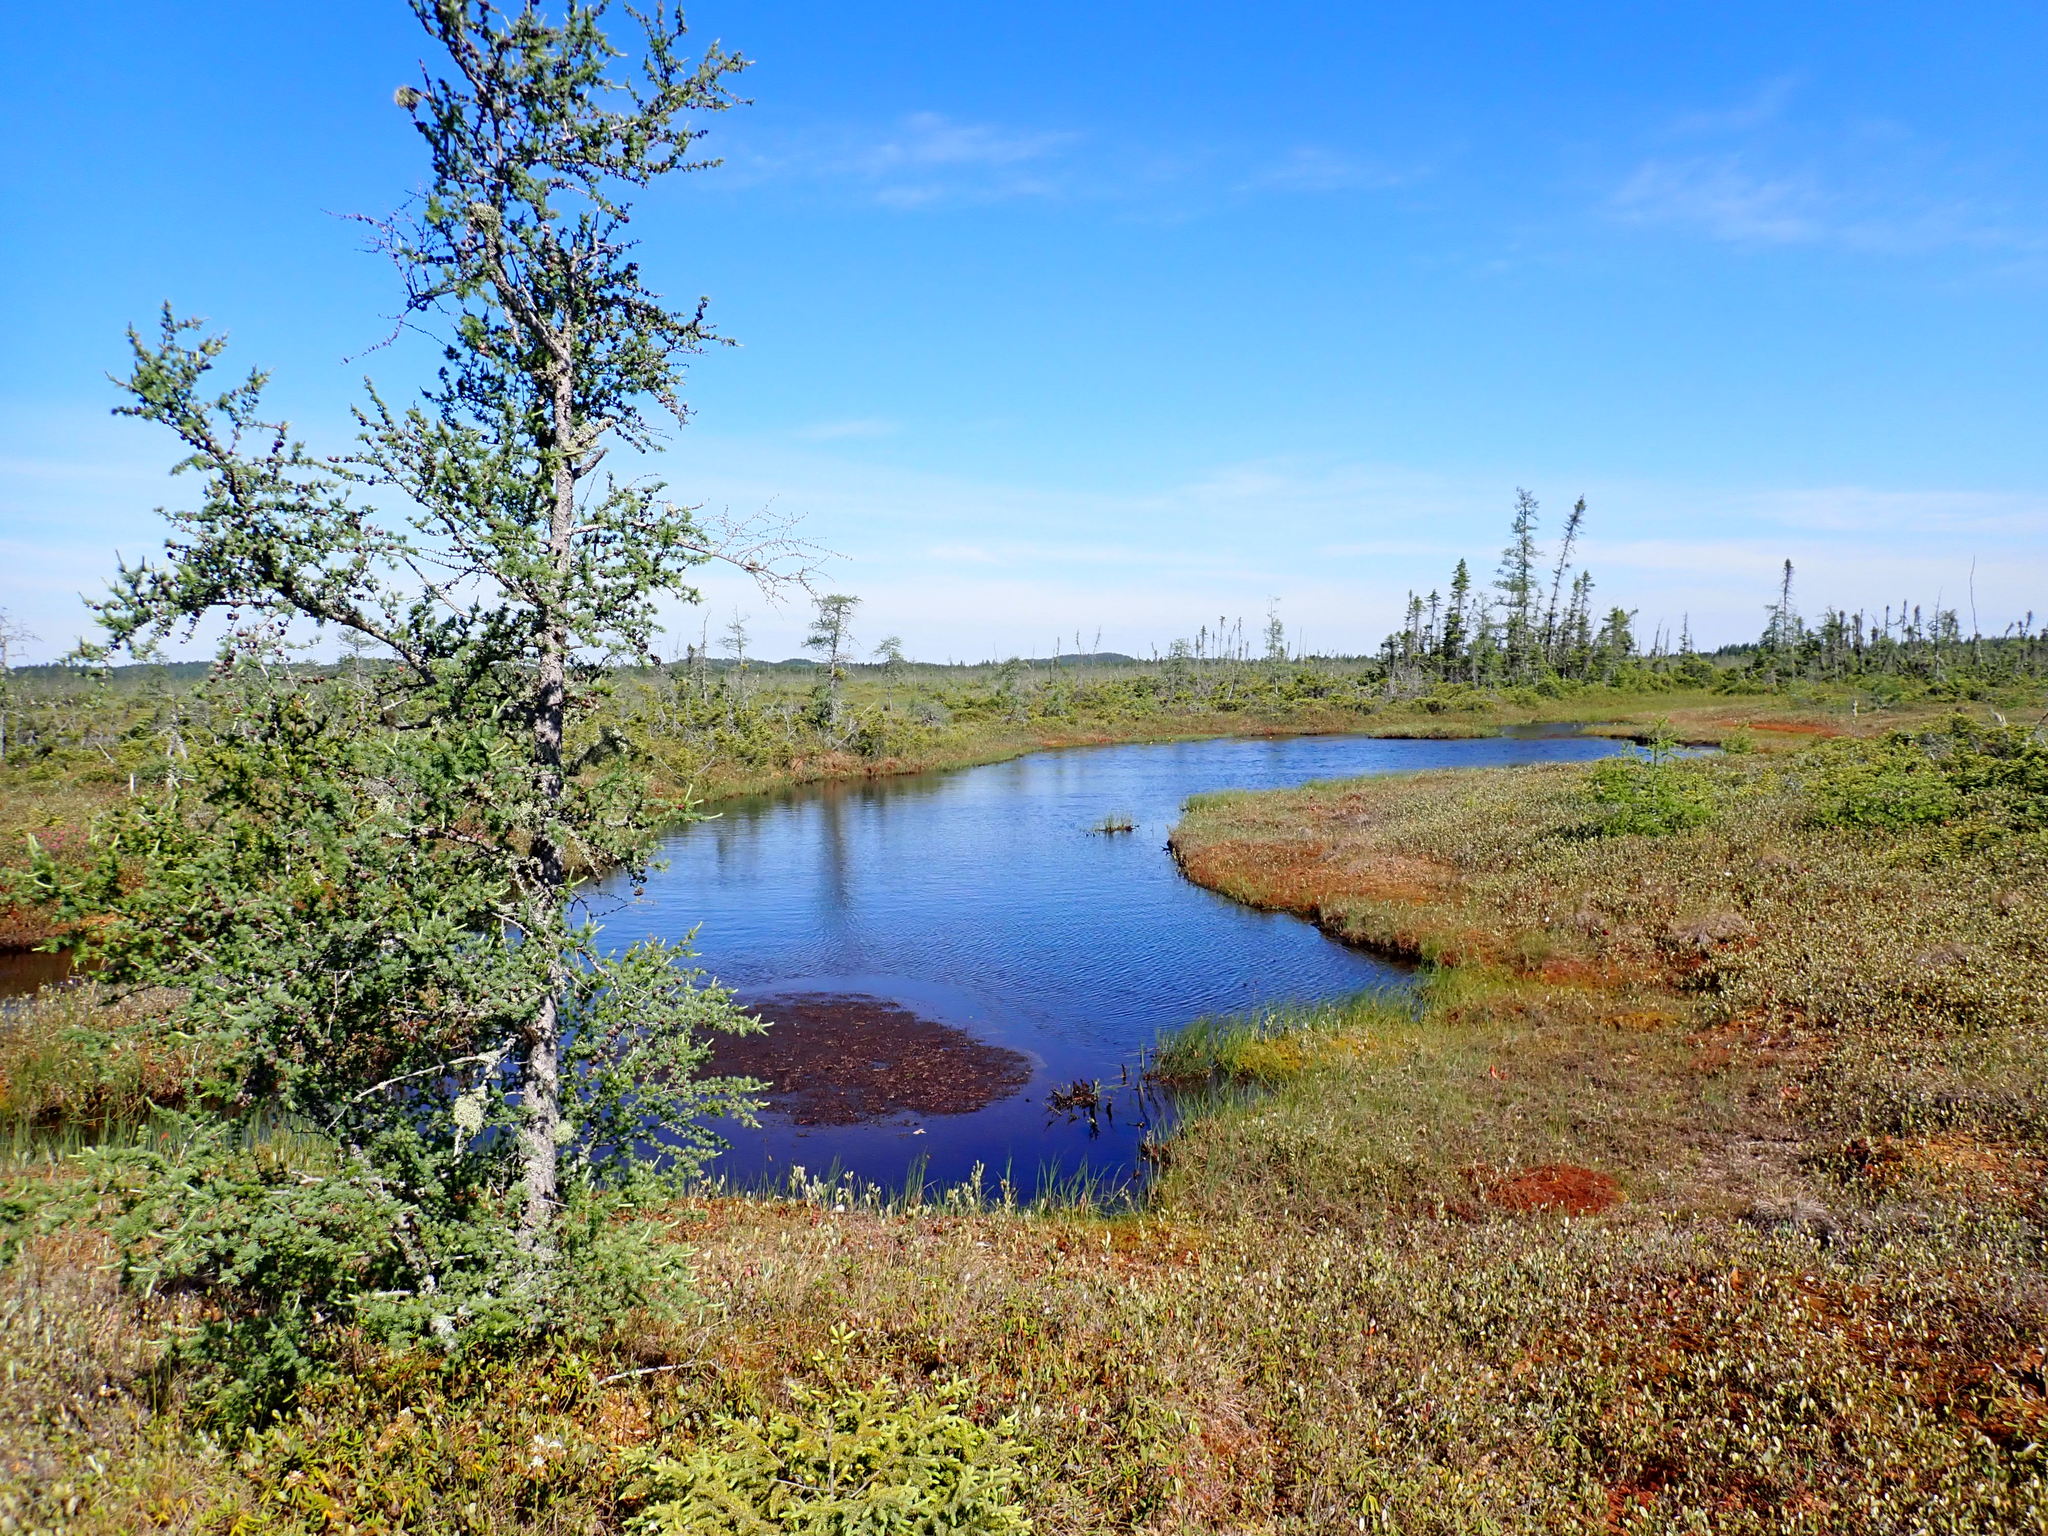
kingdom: Plantae
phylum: Tracheophyta
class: Pinopsida
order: Pinales
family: Pinaceae
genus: Larix
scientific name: Larix laricina
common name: American larch
